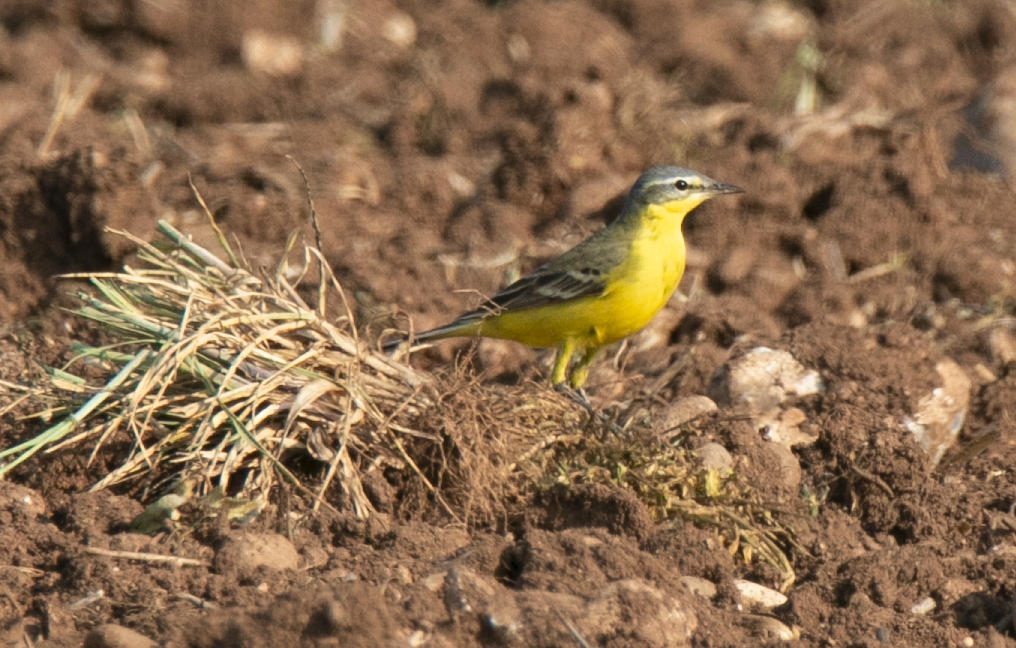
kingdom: Animalia
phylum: Chordata
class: Aves
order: Passeriformes
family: Motacillidae
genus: Motacilla
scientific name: Motacilla flava
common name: Western yellow wagtail
